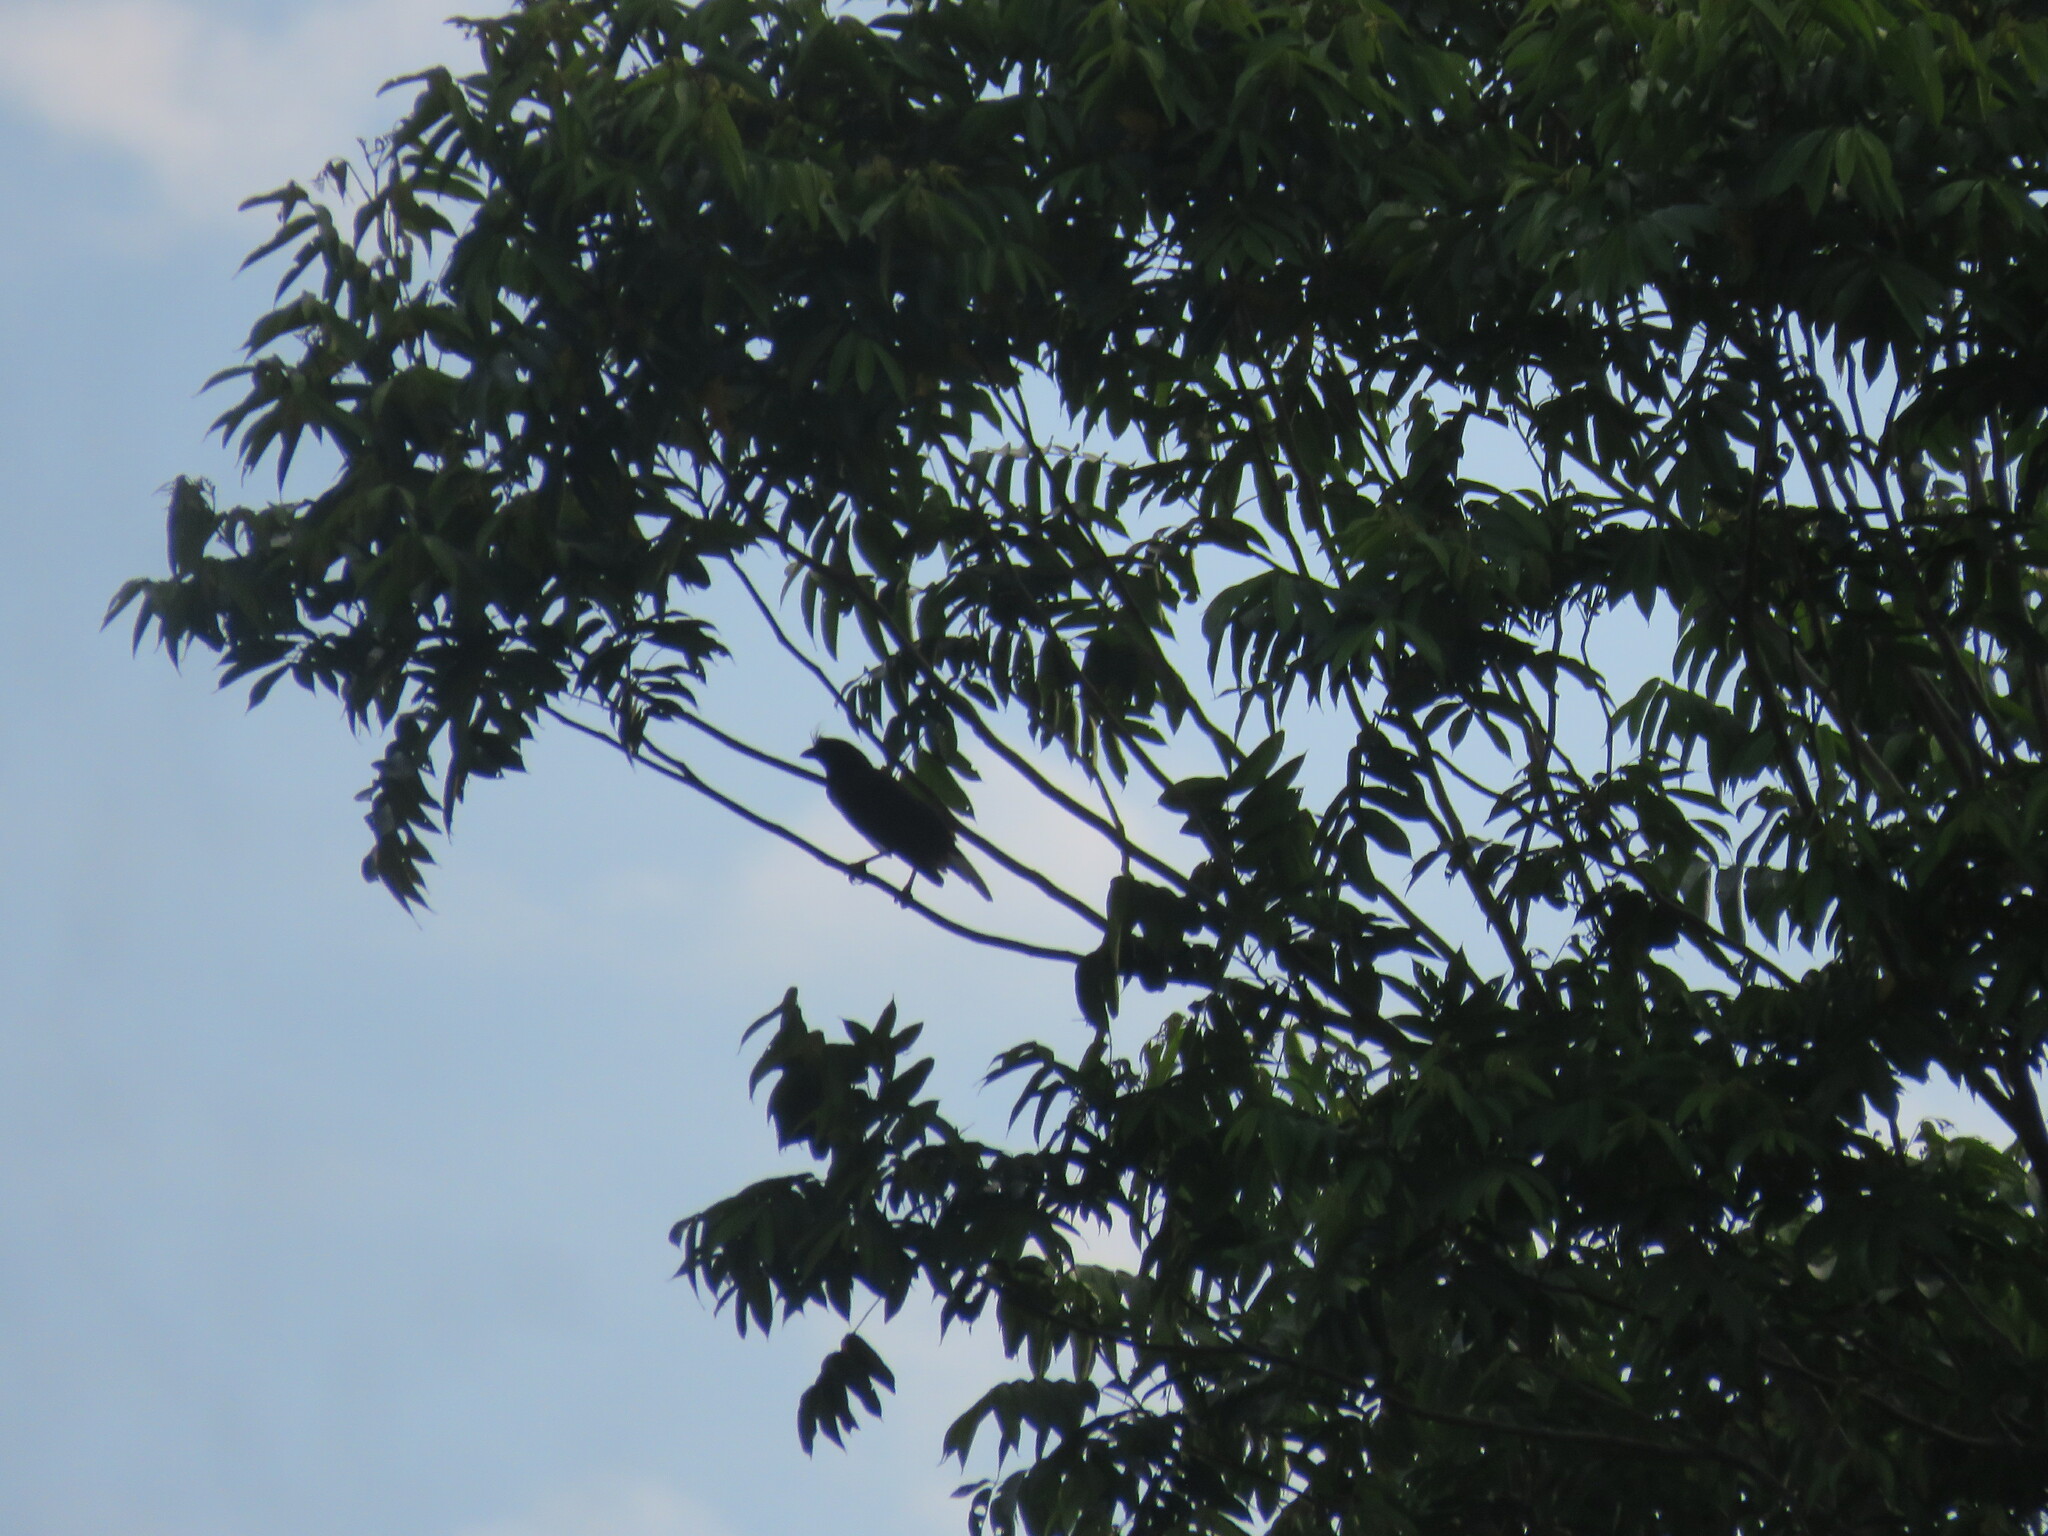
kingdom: Animalia
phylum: Chordata
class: Aves
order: Passeriformes
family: Corvidae
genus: Cyanocorax
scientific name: Cyanocorax cristatellus
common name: Curl-crested jay
